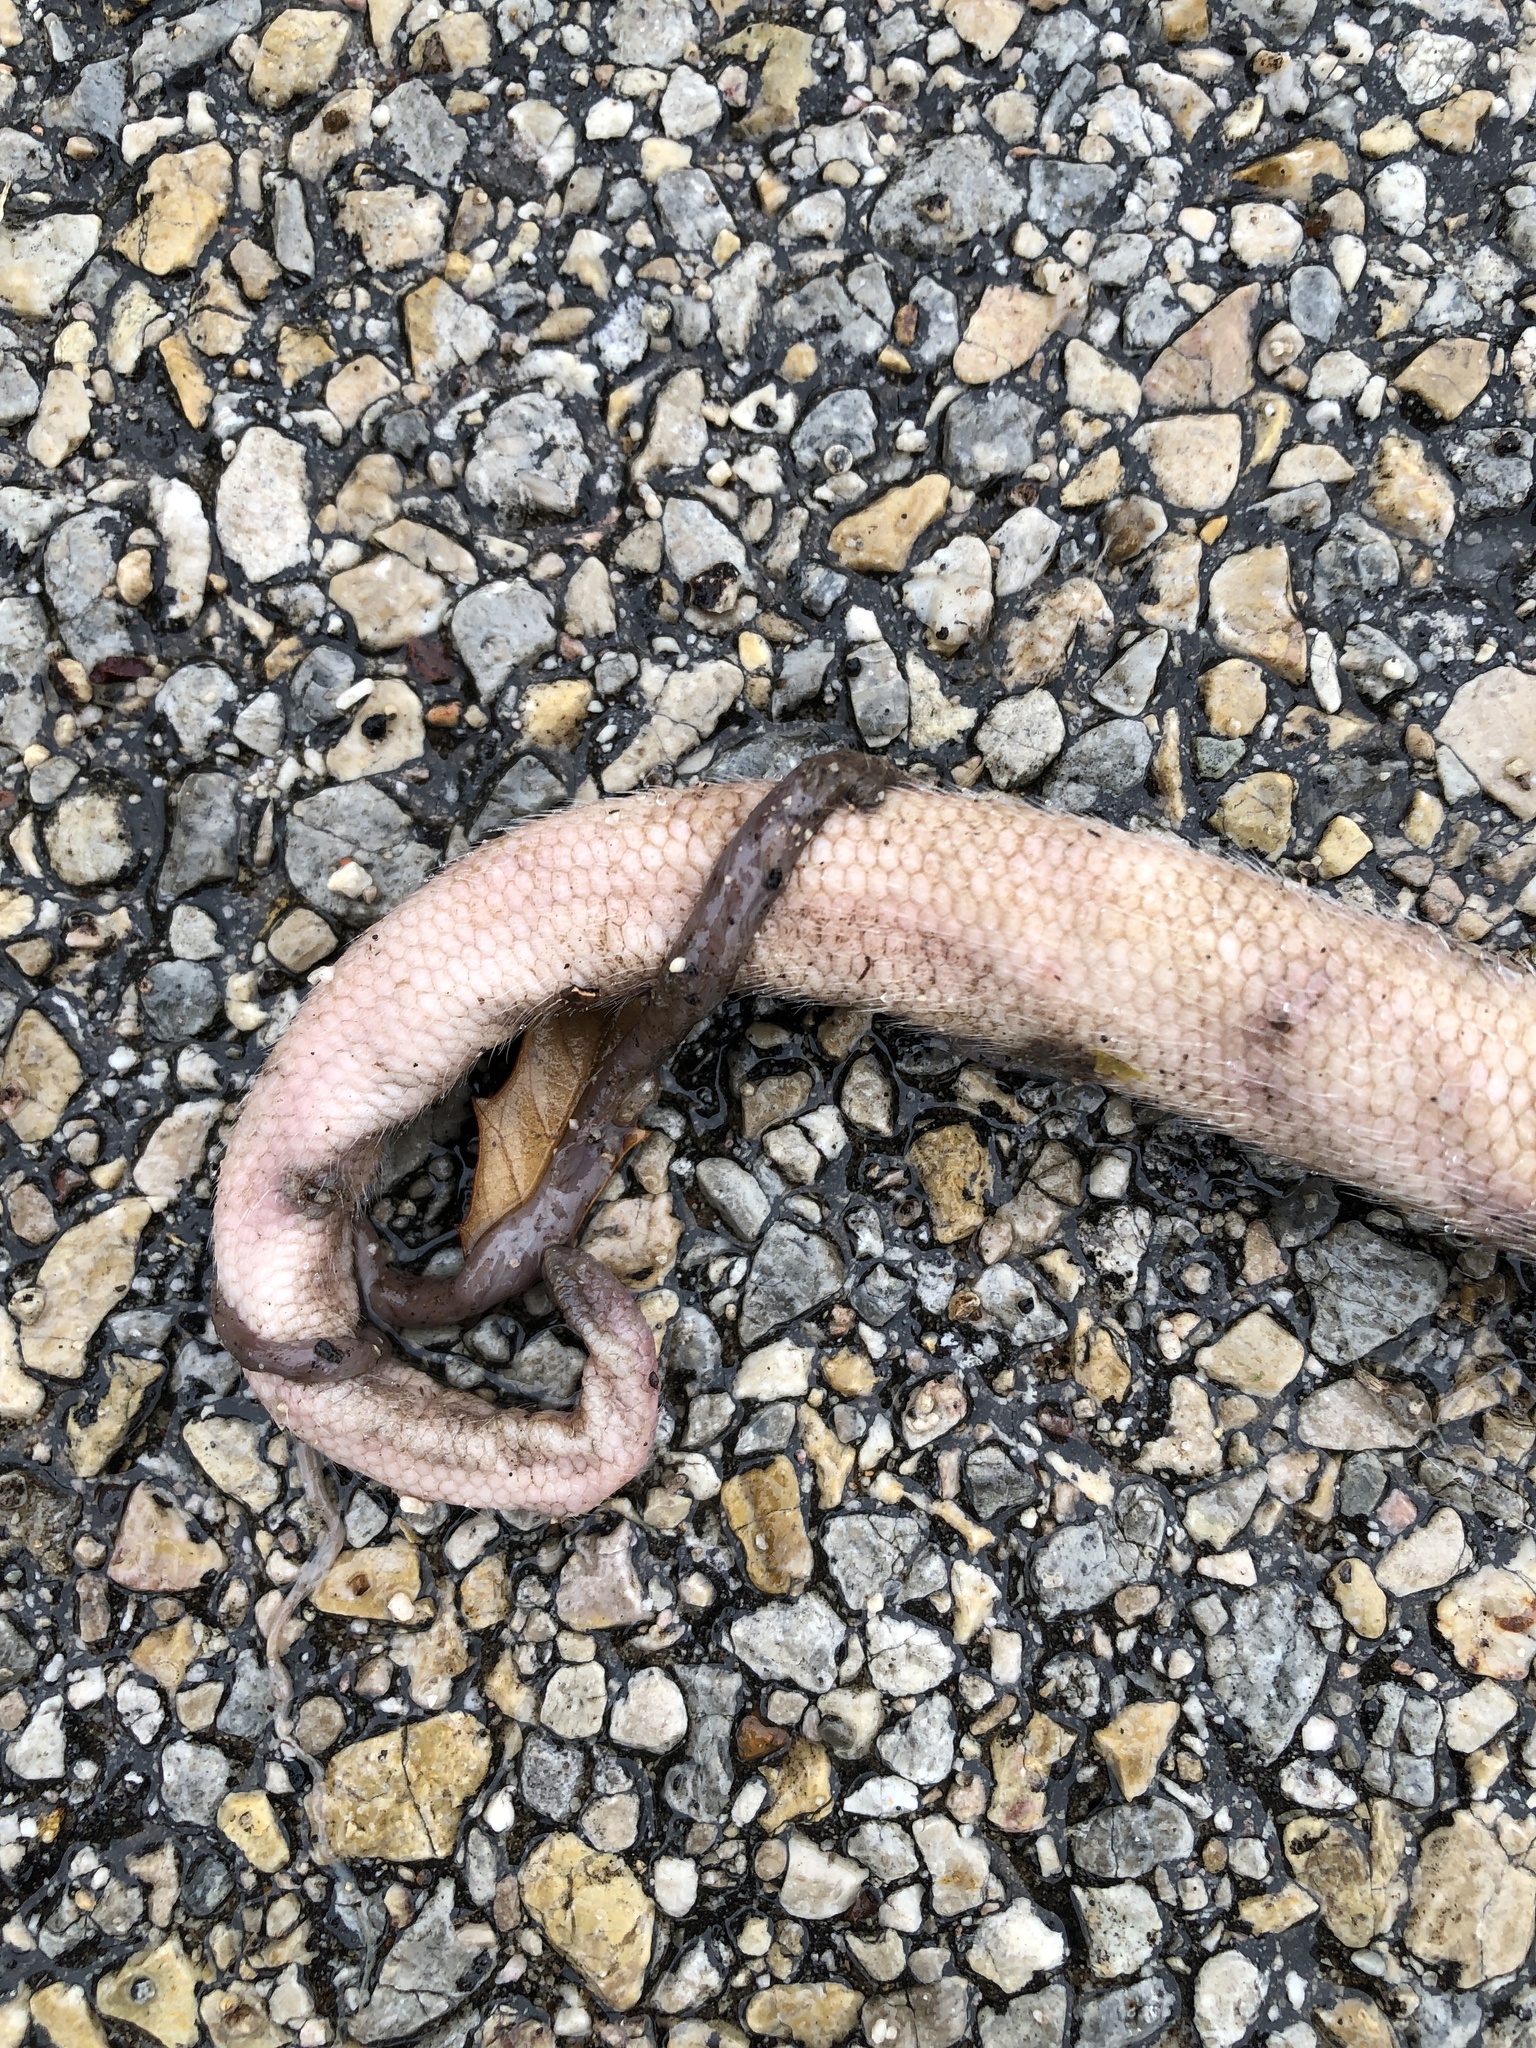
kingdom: Animalia
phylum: Chordata
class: Mammalia
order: Didelphimorphia
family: Didelphidae
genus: Didelphis
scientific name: Didelphis virginiana
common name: Virginia opossum
